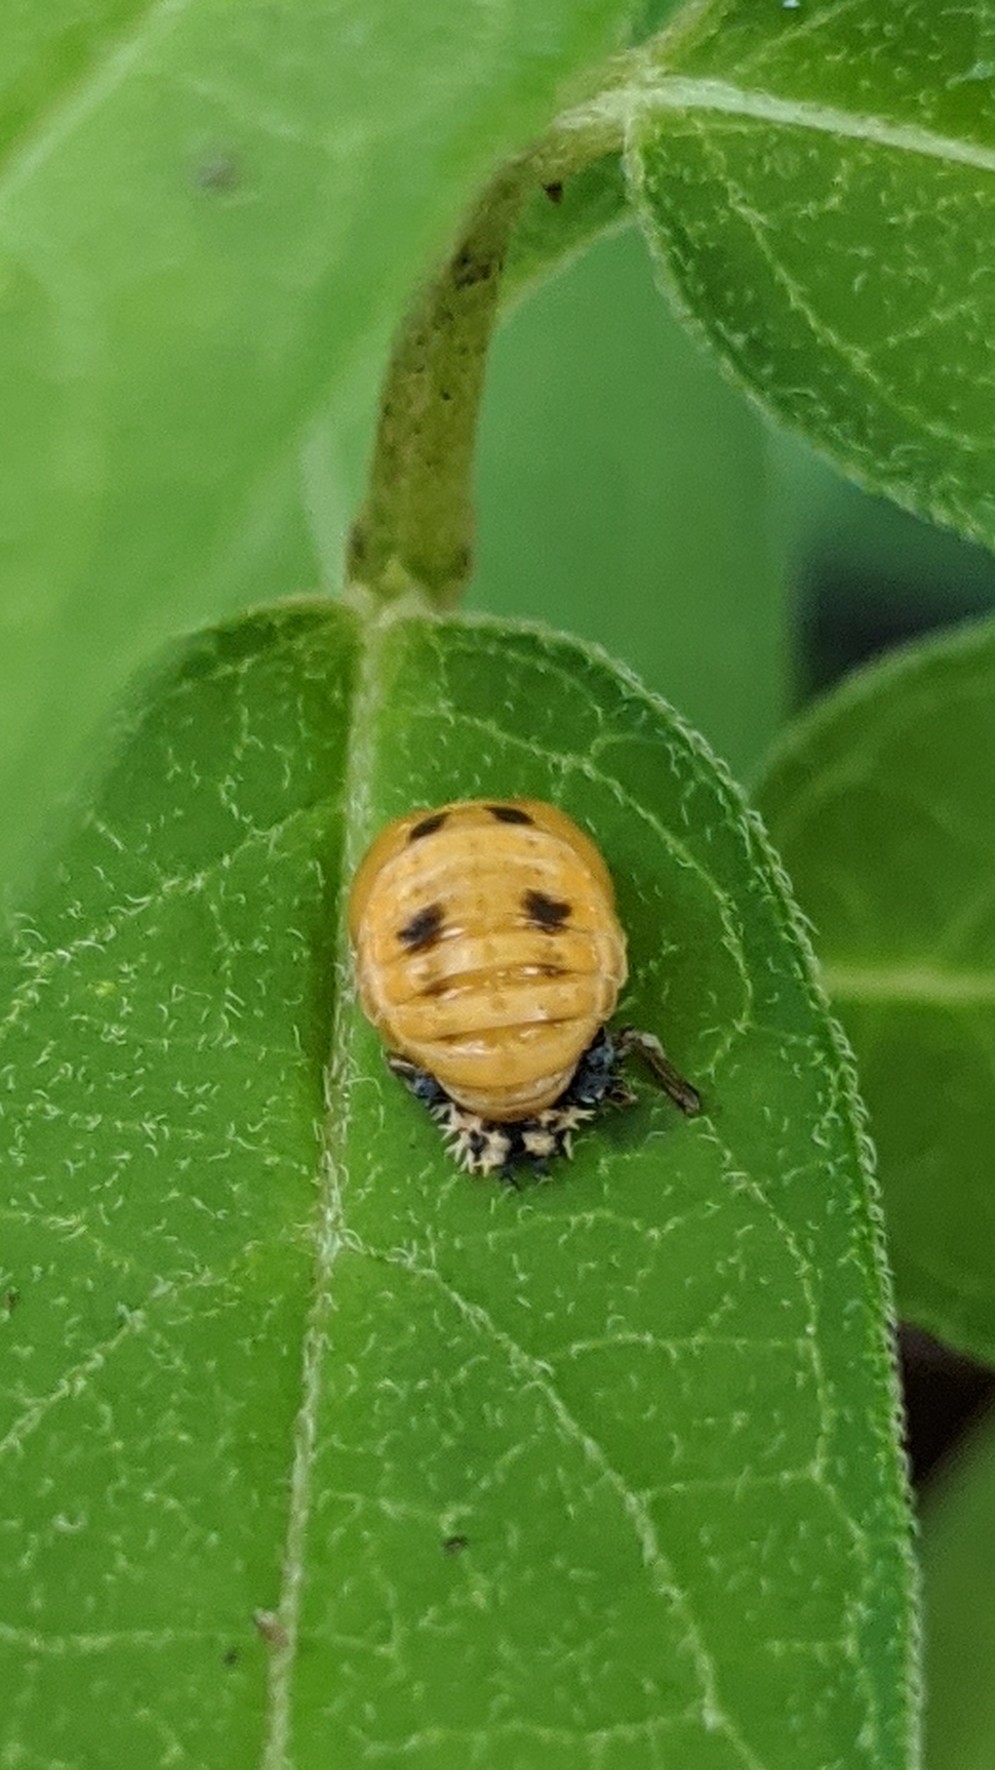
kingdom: Animalia
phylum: Arthropoda
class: Insecta
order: Coleoptera
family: Coccinellidae
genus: Harmonia
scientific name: Harmonia axyridis
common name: Harlequin ladybird
